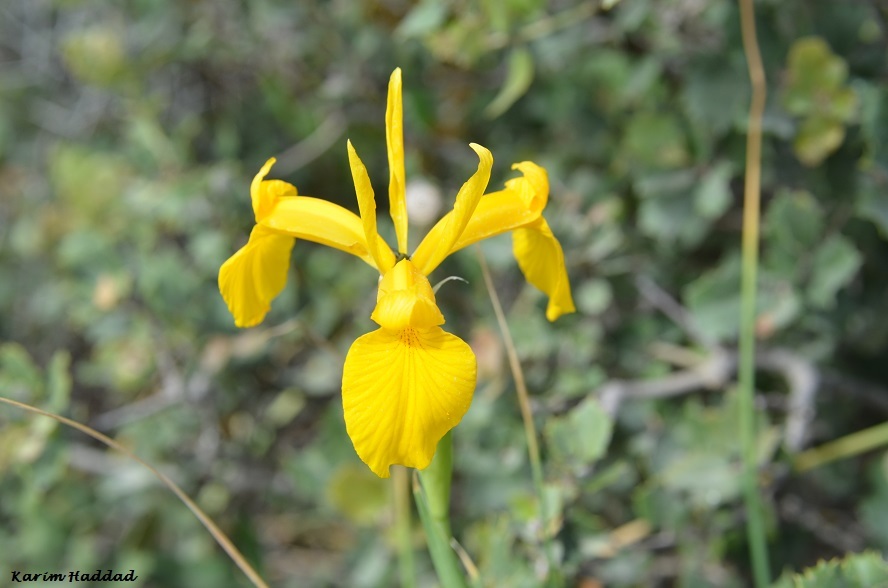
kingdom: Plantae
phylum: Tracheophyta
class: Liliopsida
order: Asparagales
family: Iridaceae
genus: Iris
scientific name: Iris juncea
